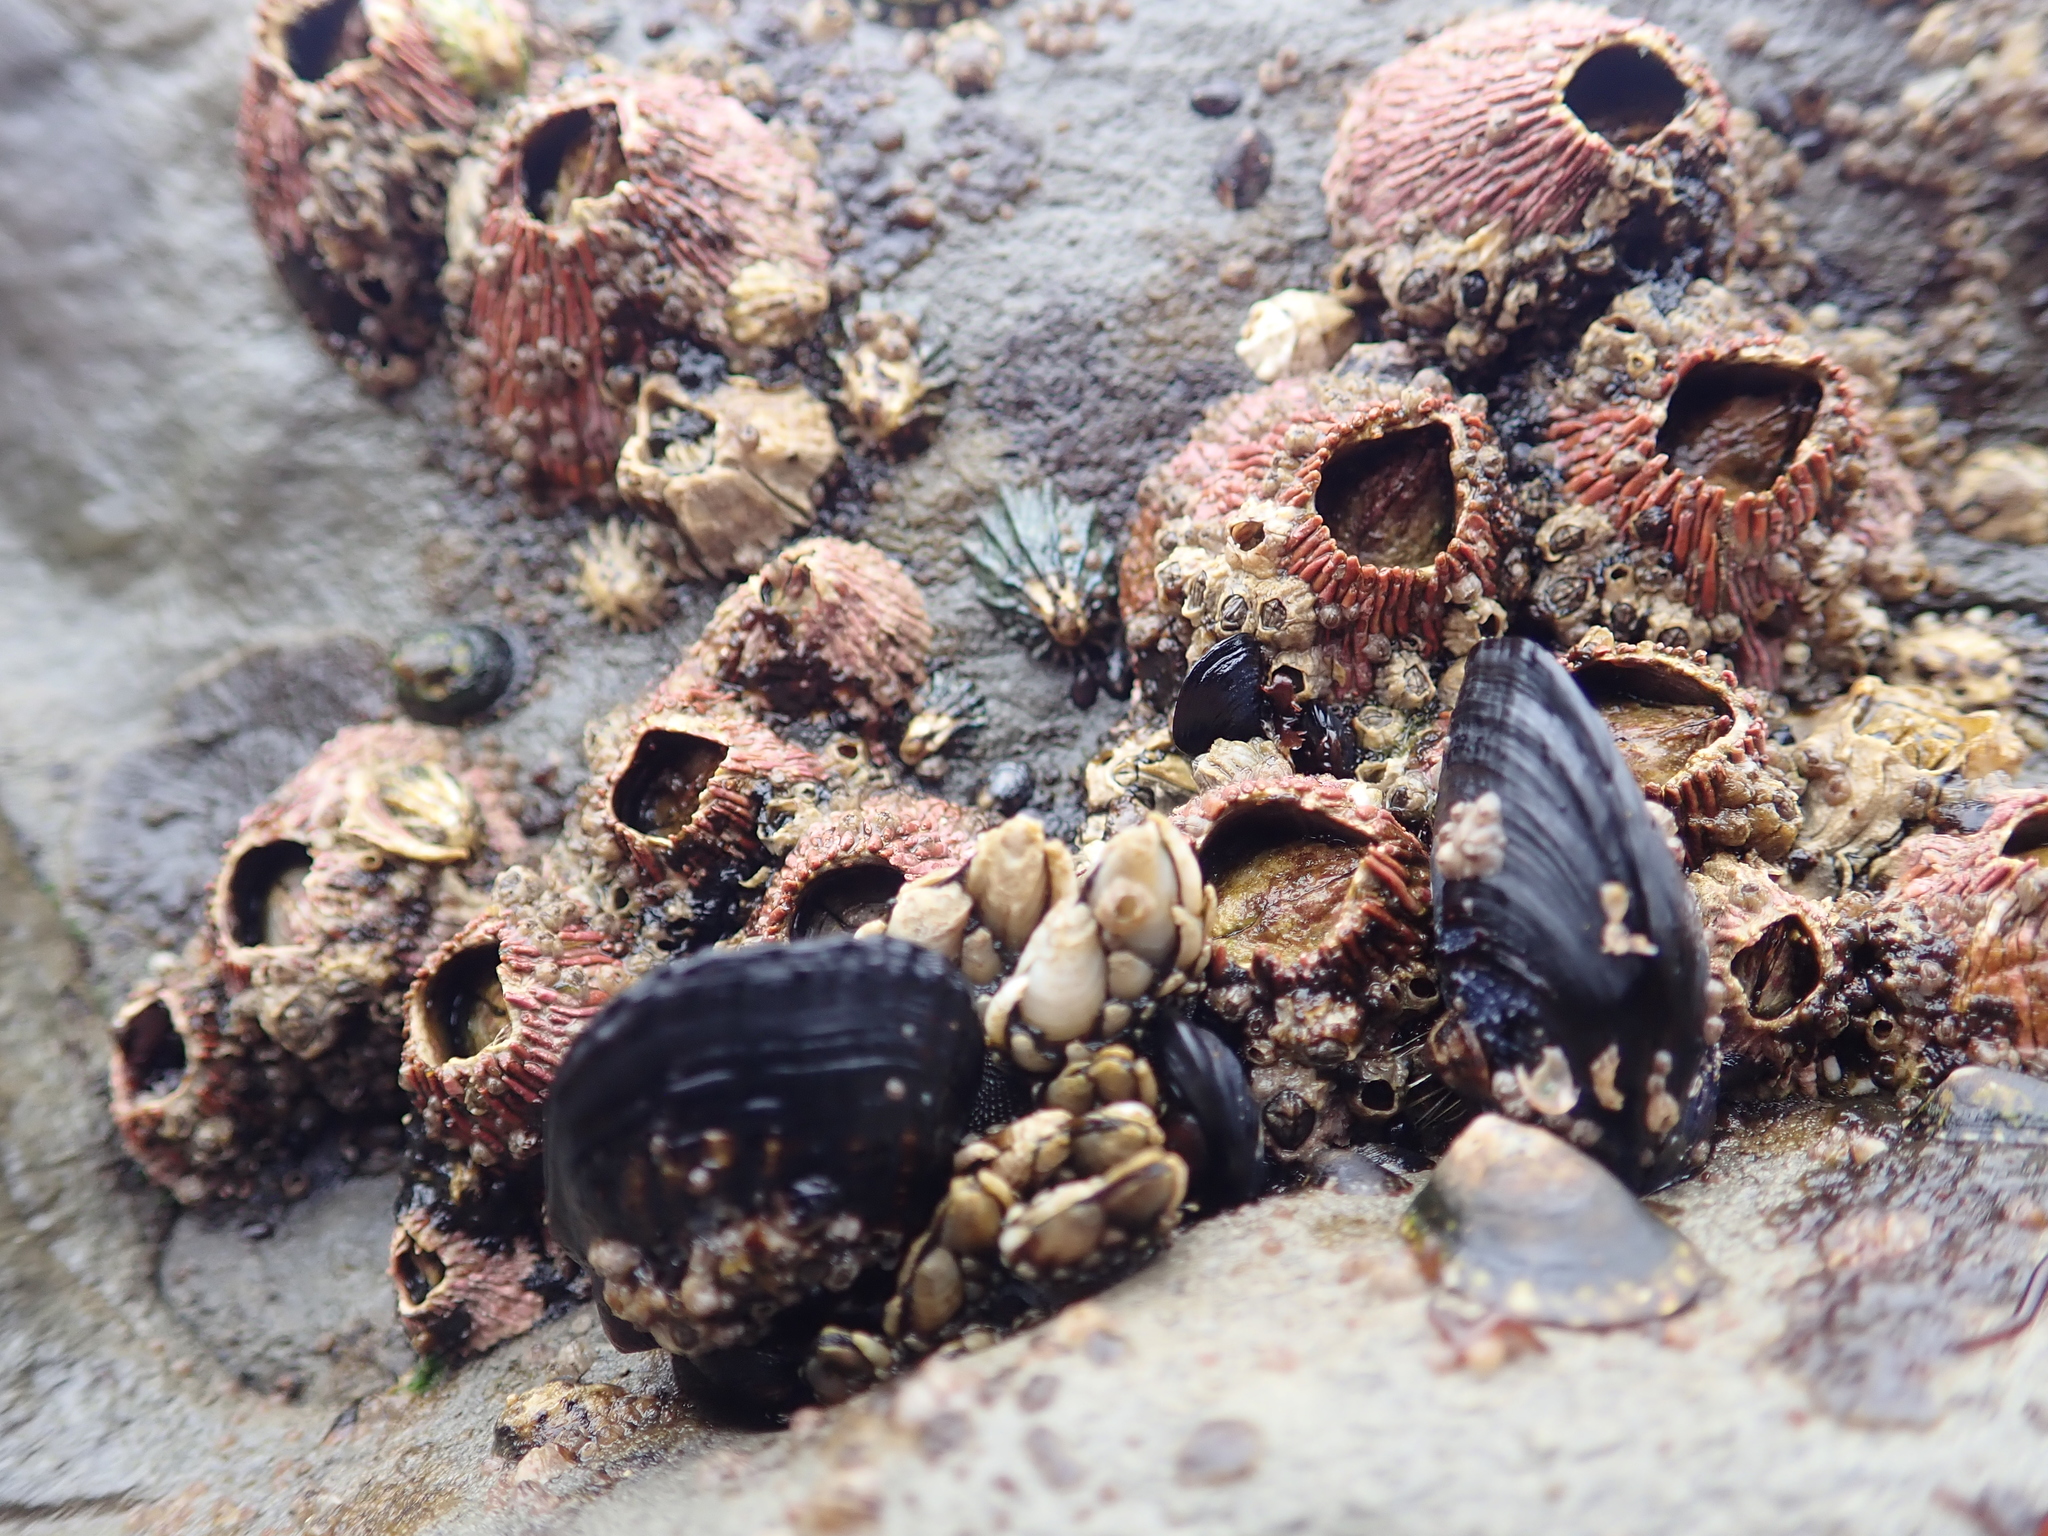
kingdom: Animalia
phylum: Arthropoda
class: Maxillopoda
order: Sessilia
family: Tetraclitidae
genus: Tetraclita
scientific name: Tetraclita rubescens
